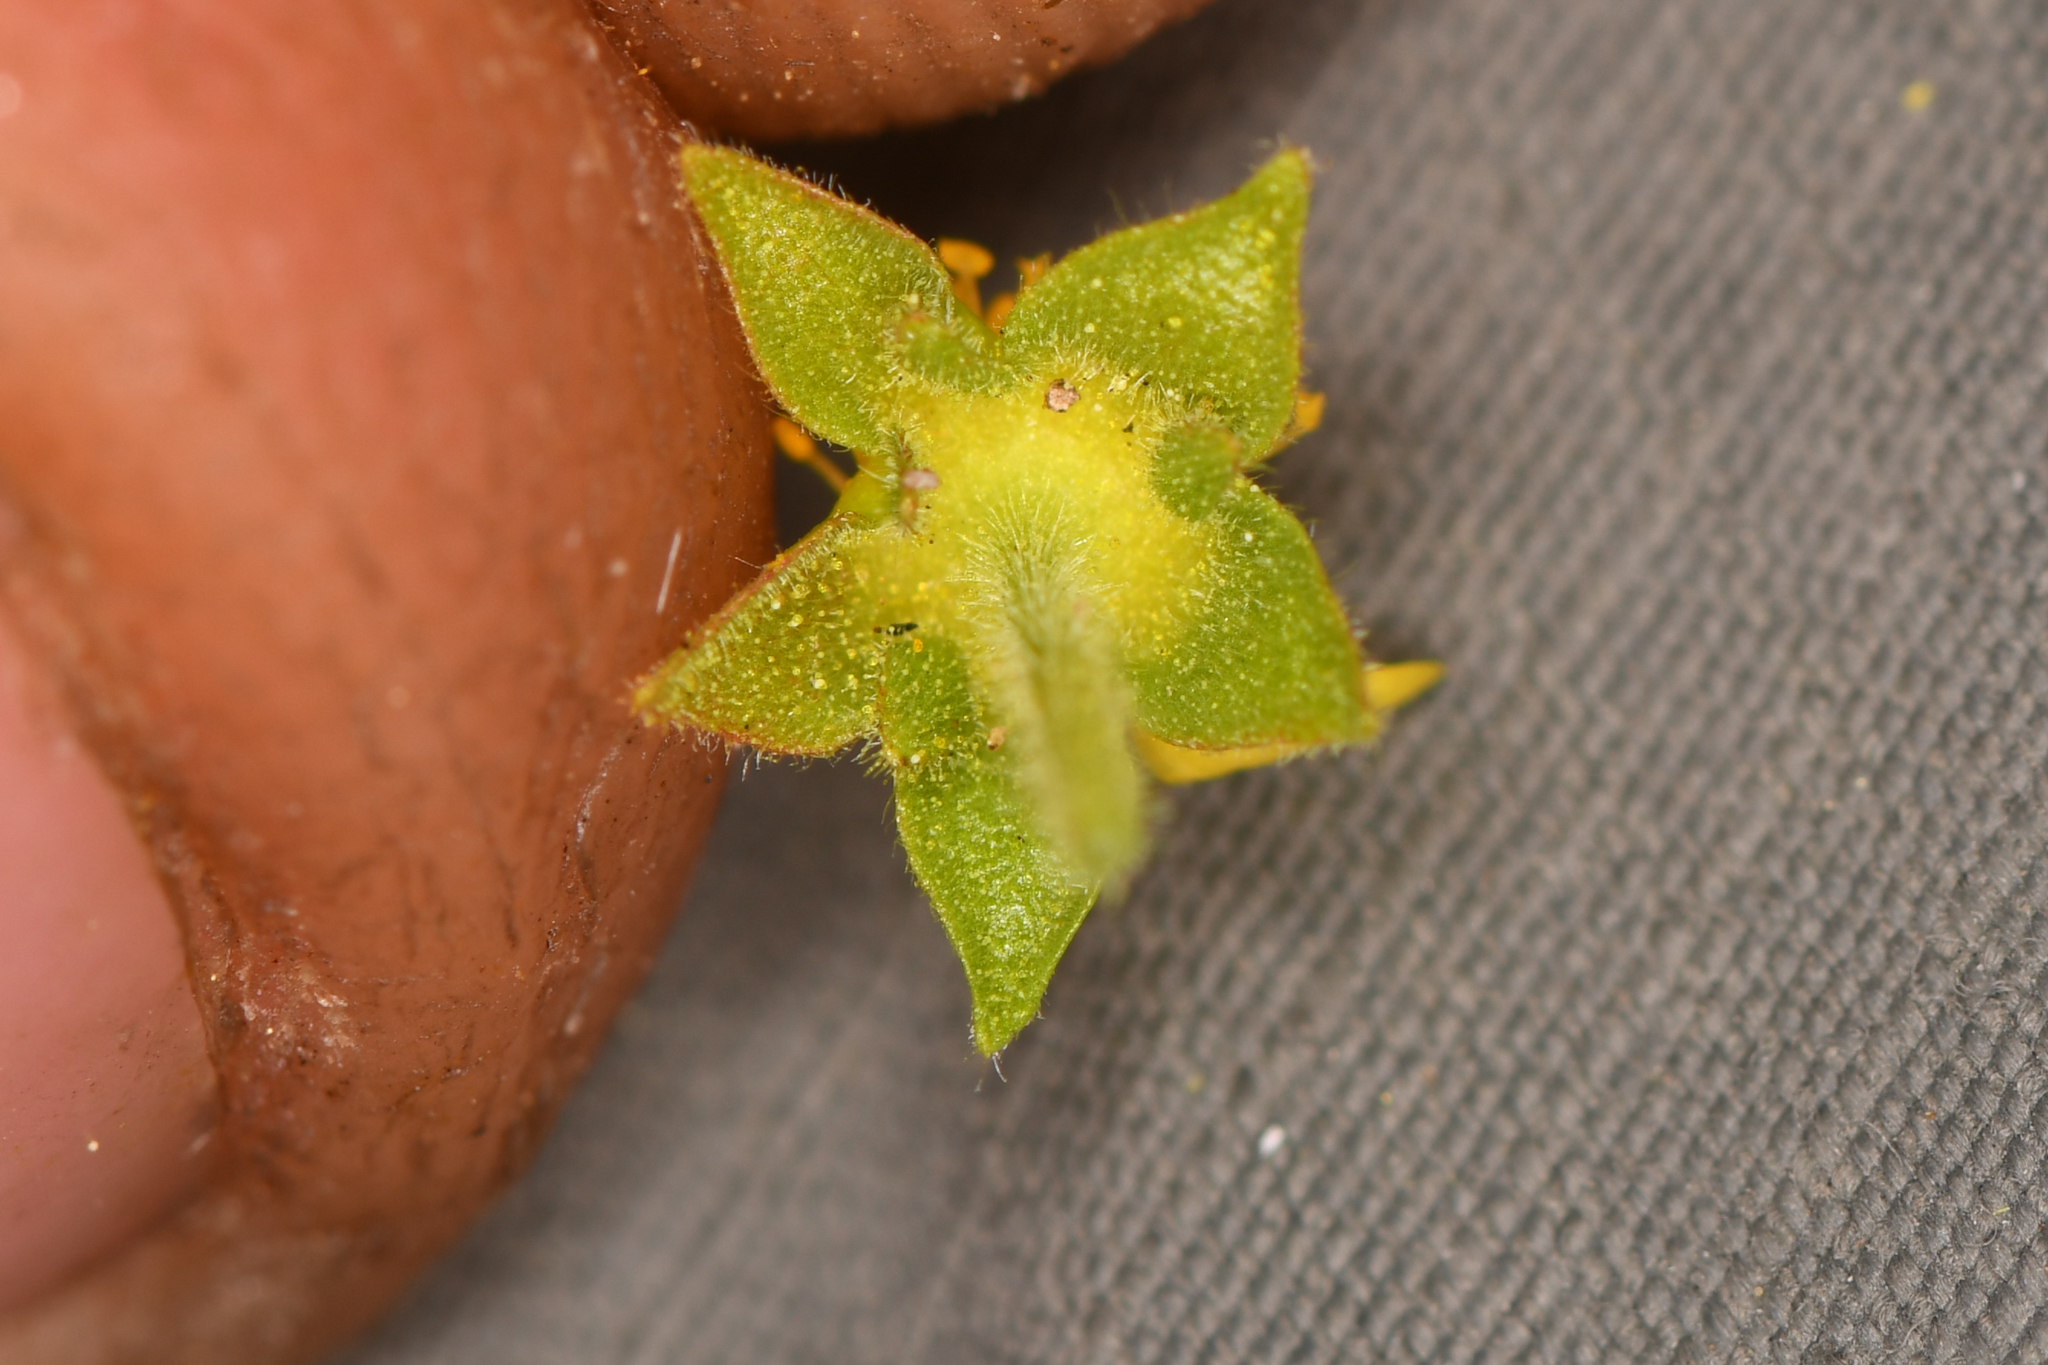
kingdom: Plantae
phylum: Tracheophyta
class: Magnoliopsida
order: Rosales
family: Rosaceae
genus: Potentilla
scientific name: Potentilla saxosa
